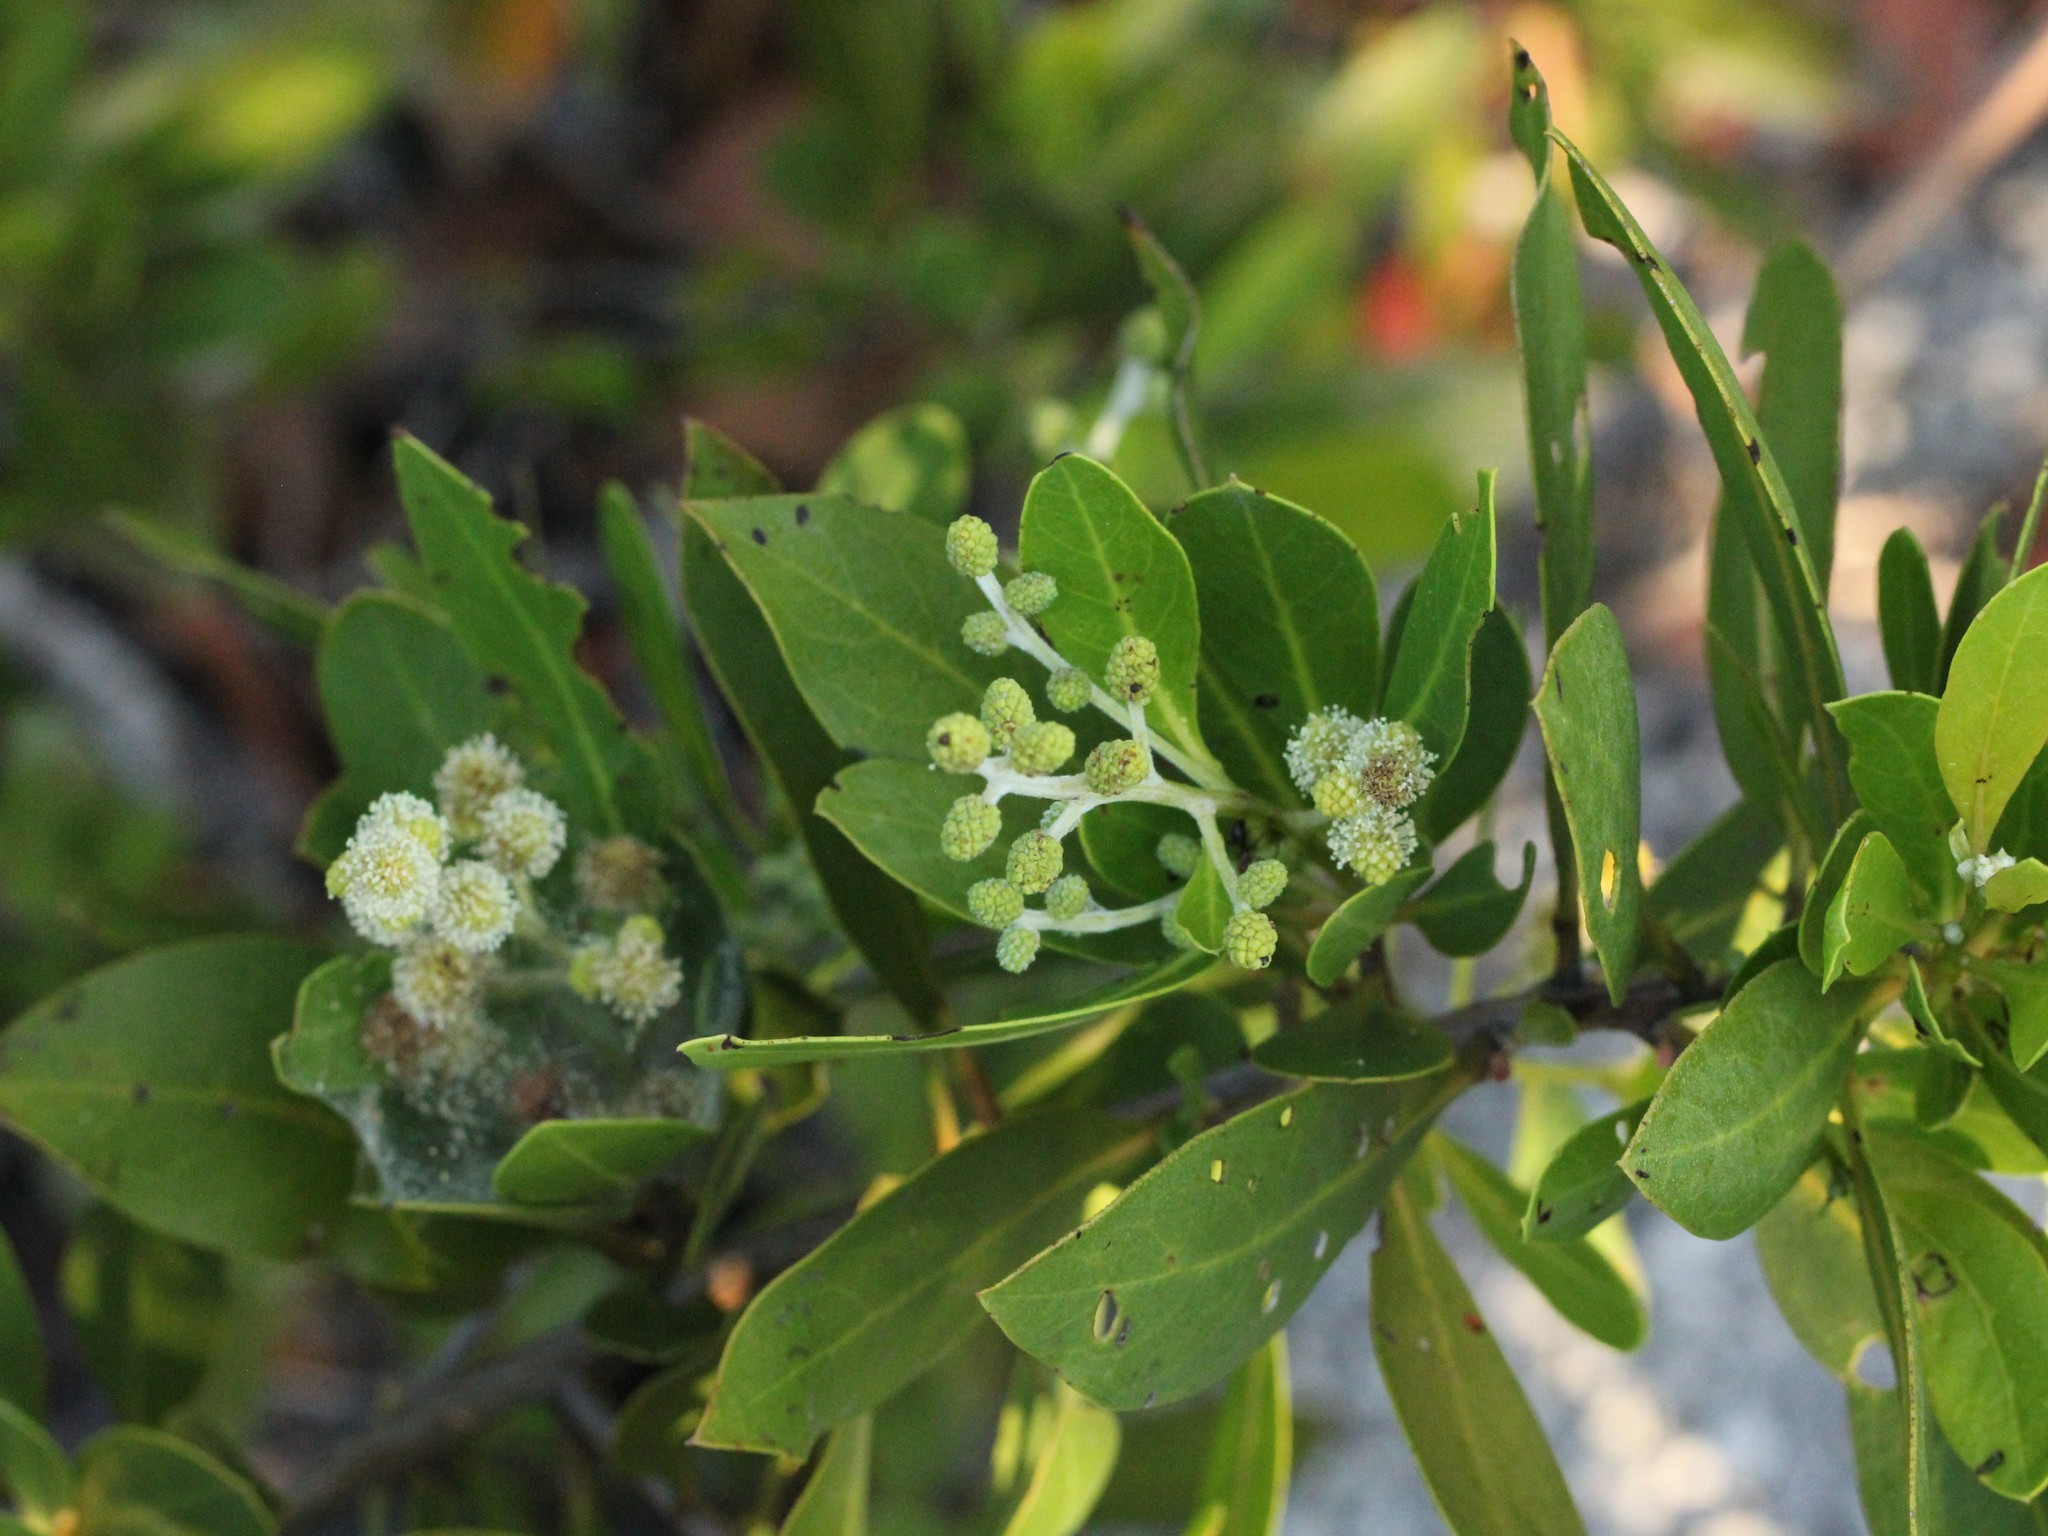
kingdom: Plantae
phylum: Tracheophyta
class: Magnoliopsida
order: Myrtales
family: Combretaceae
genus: Conocarpus
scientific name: Conocarpus erectus
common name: Button mangrove
